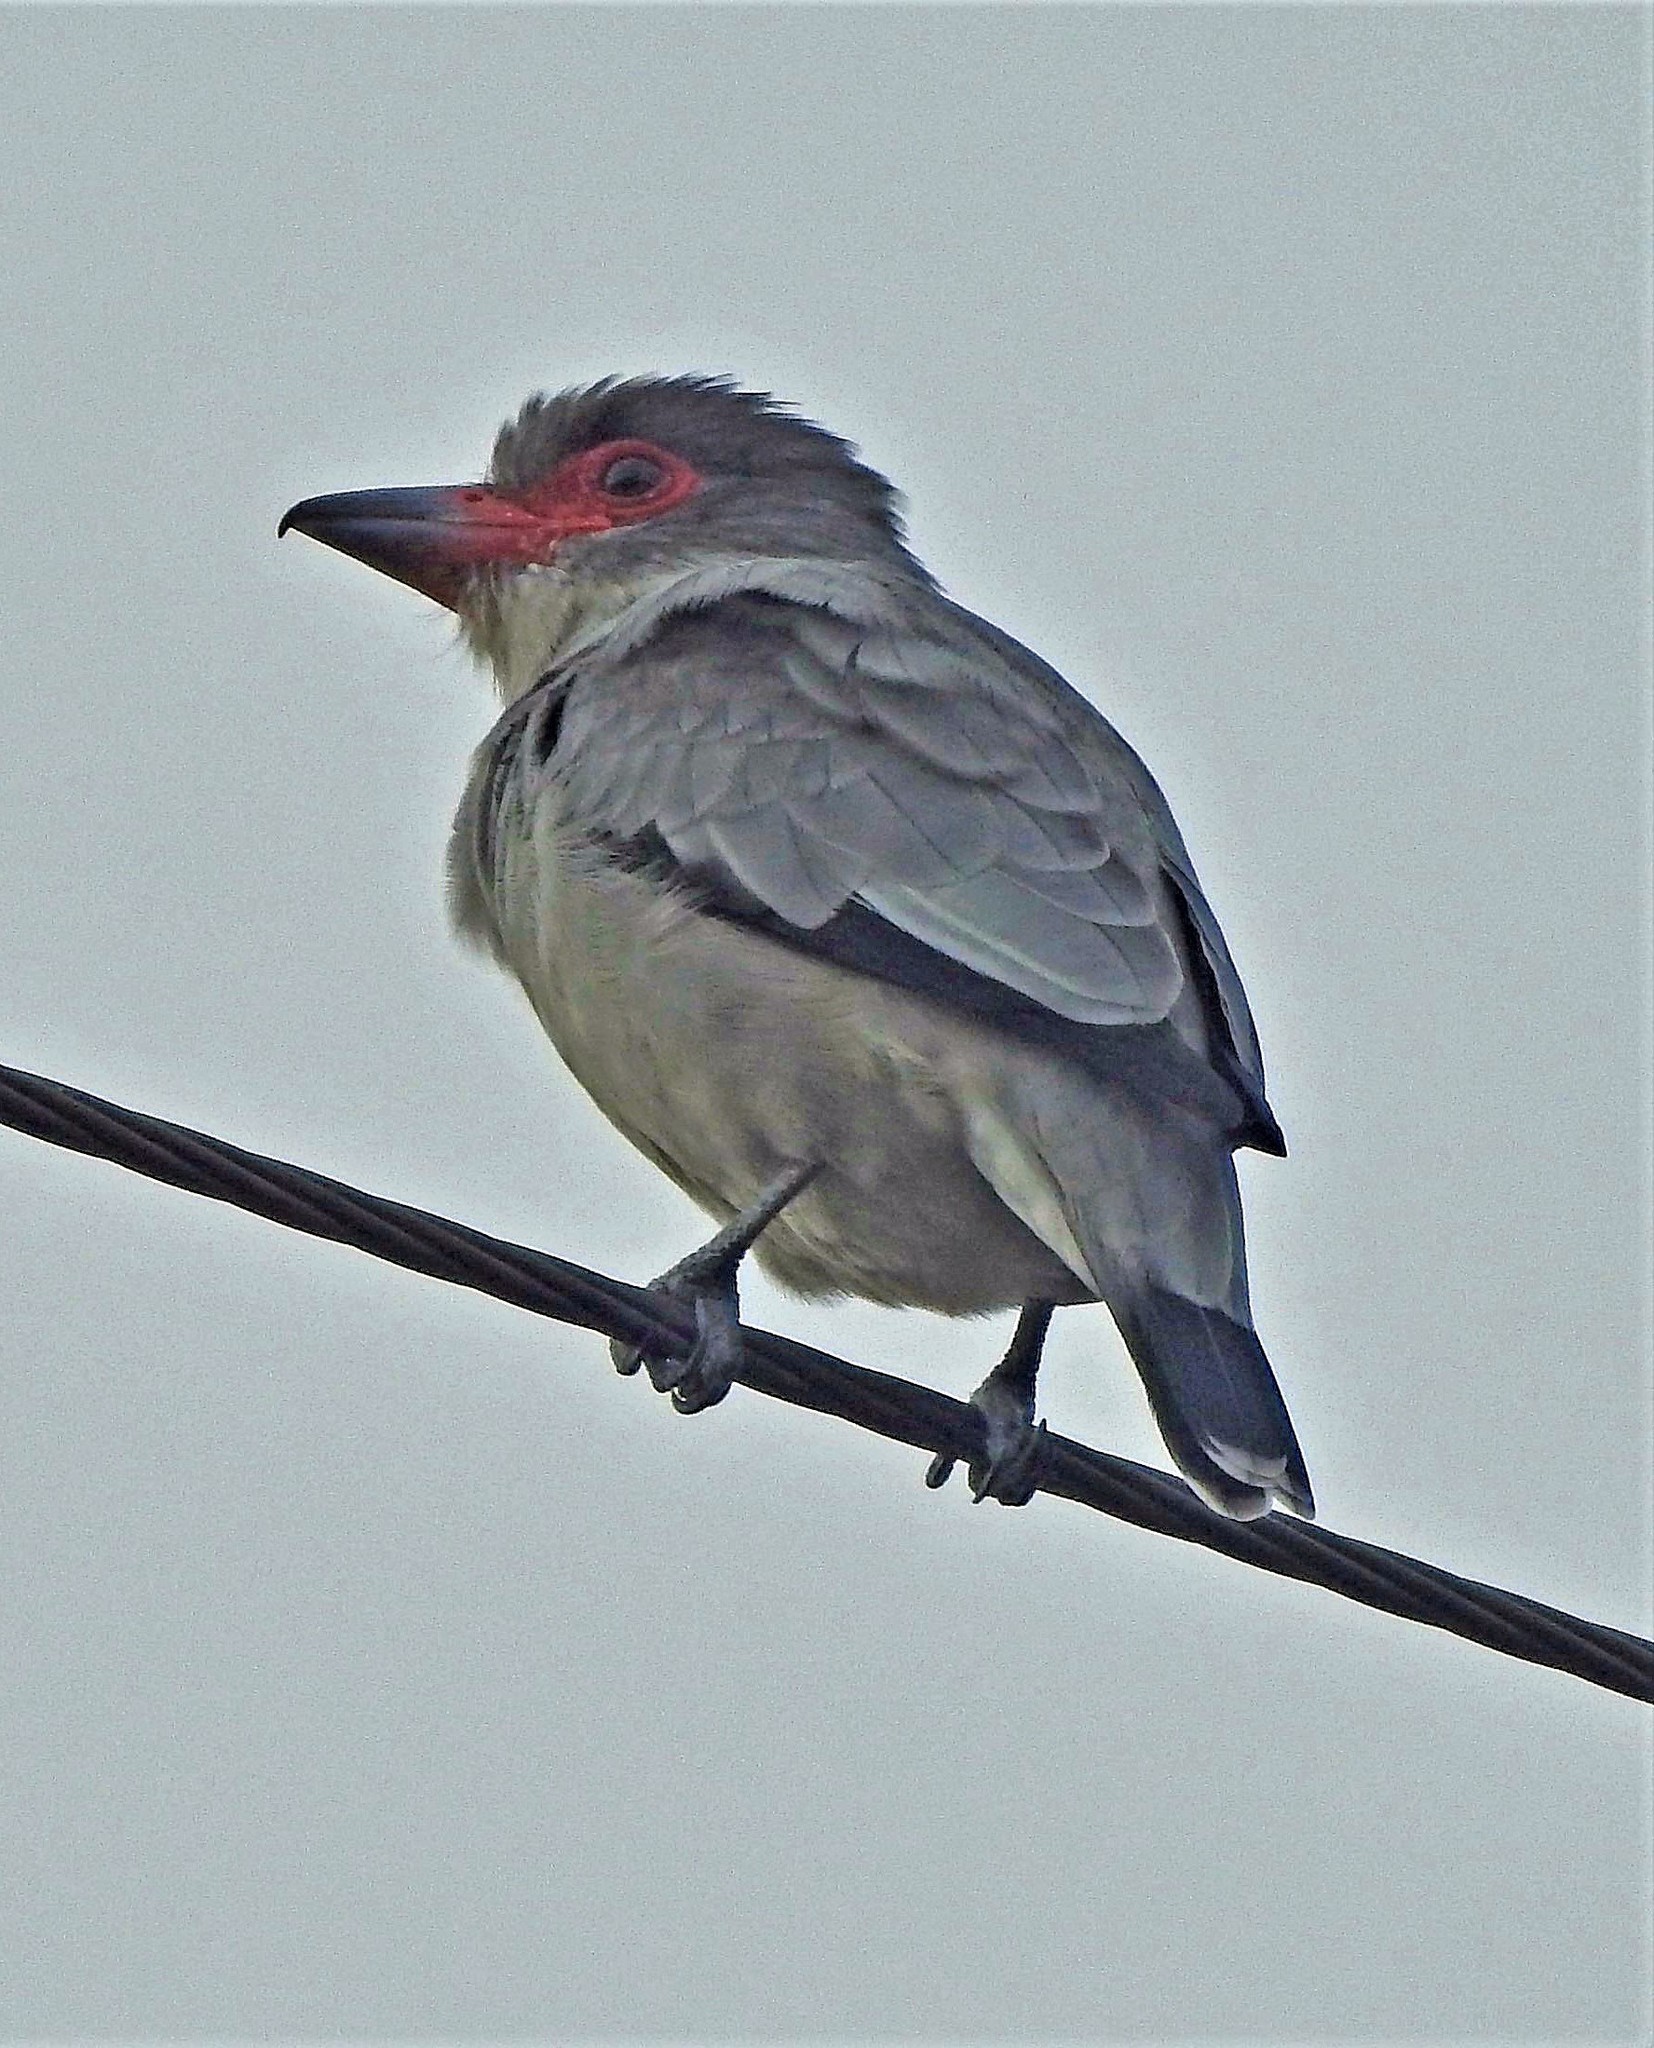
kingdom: Animalia
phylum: Chordata
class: Aves
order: Passeriformes
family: Cotingidae
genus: Tityra
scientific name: Tityra semifasciata
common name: Masked tityra
